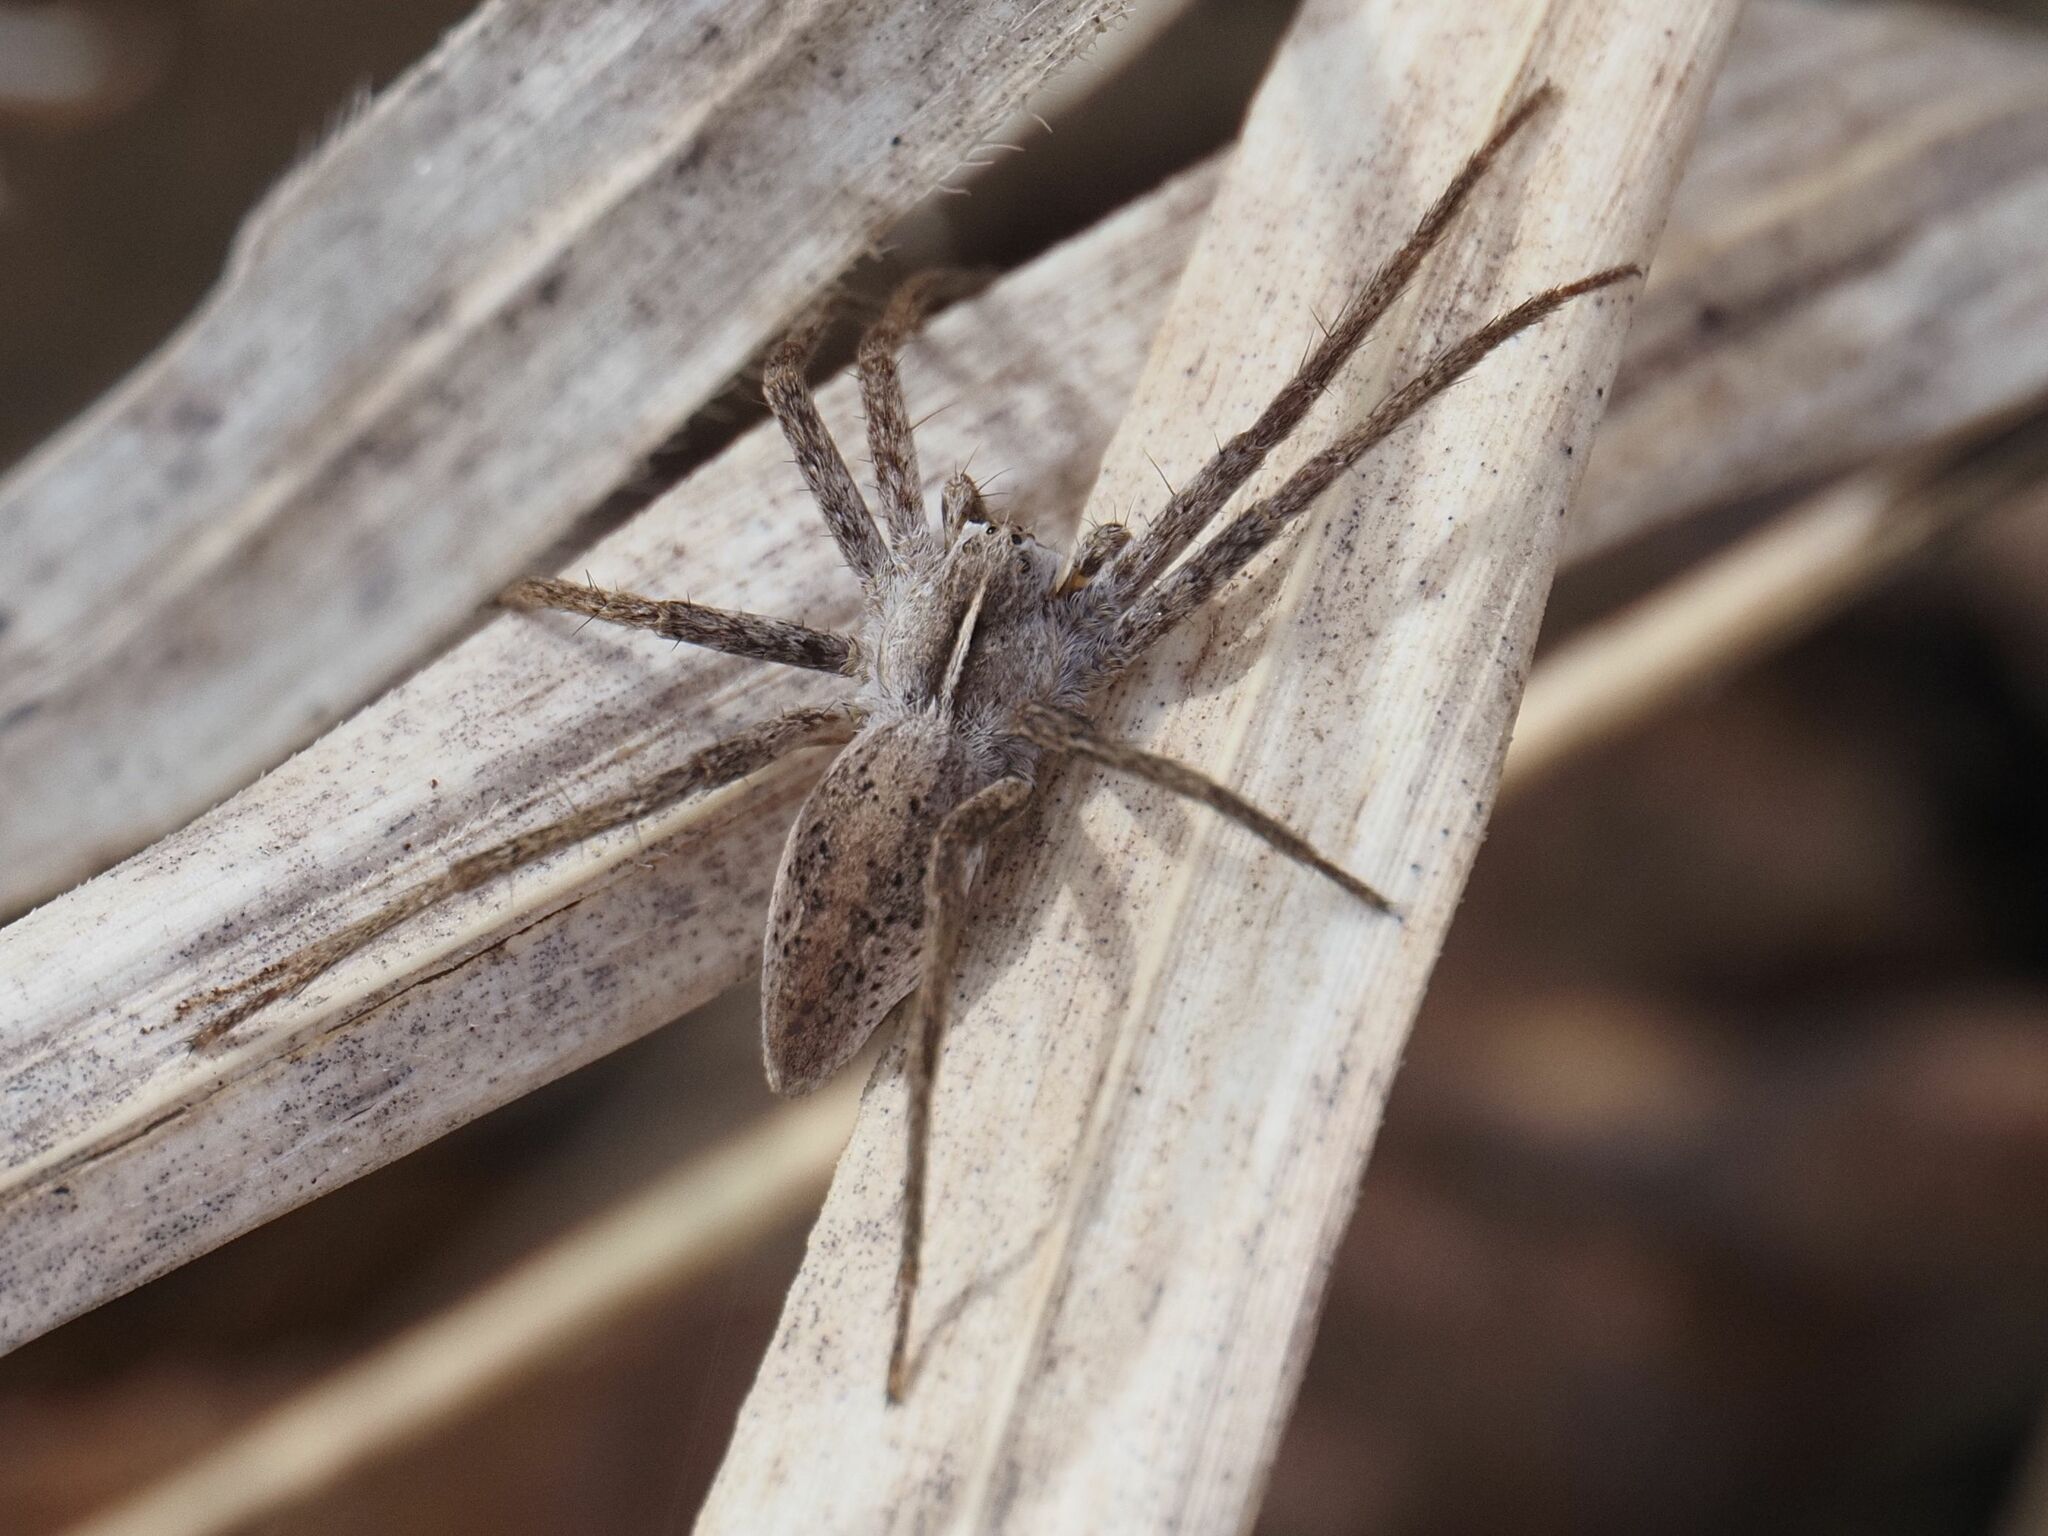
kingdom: Animalia
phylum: Arthropoda
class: Arachnida
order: Araneae
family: Pisauridae
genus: Pisaura
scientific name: Pisaura mirabilis
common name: Tent spider
